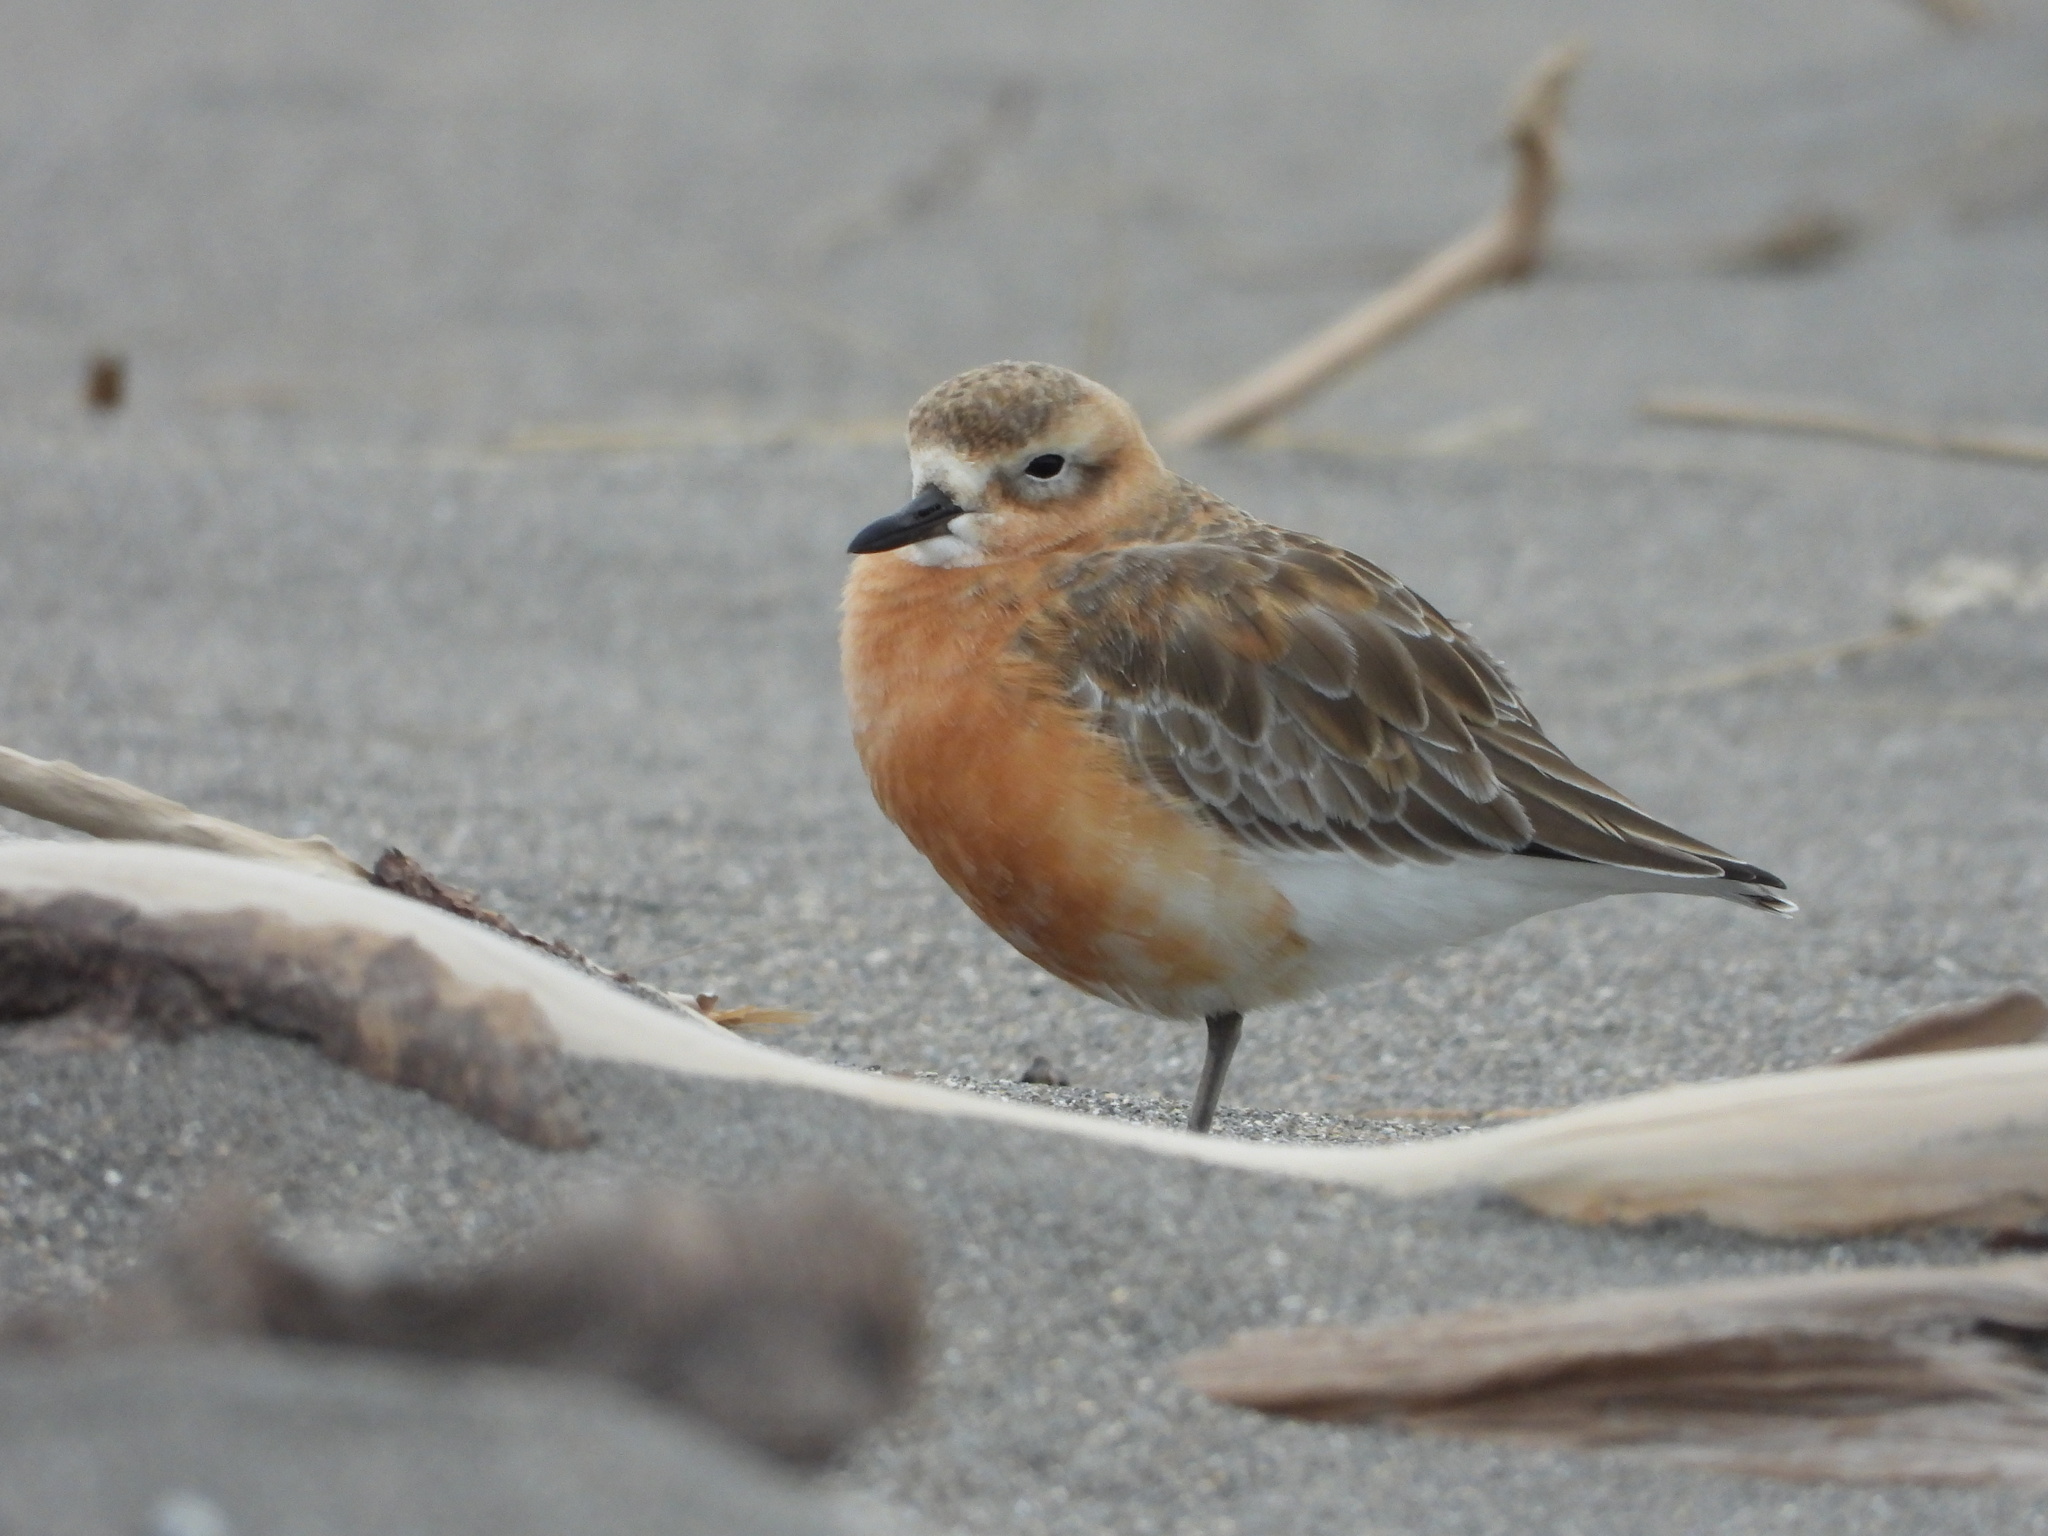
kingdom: Animalia
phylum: Chordata
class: Aves
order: Charadriiformes
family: Charadriidae
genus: Anarhynchus
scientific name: Anarhynchus
